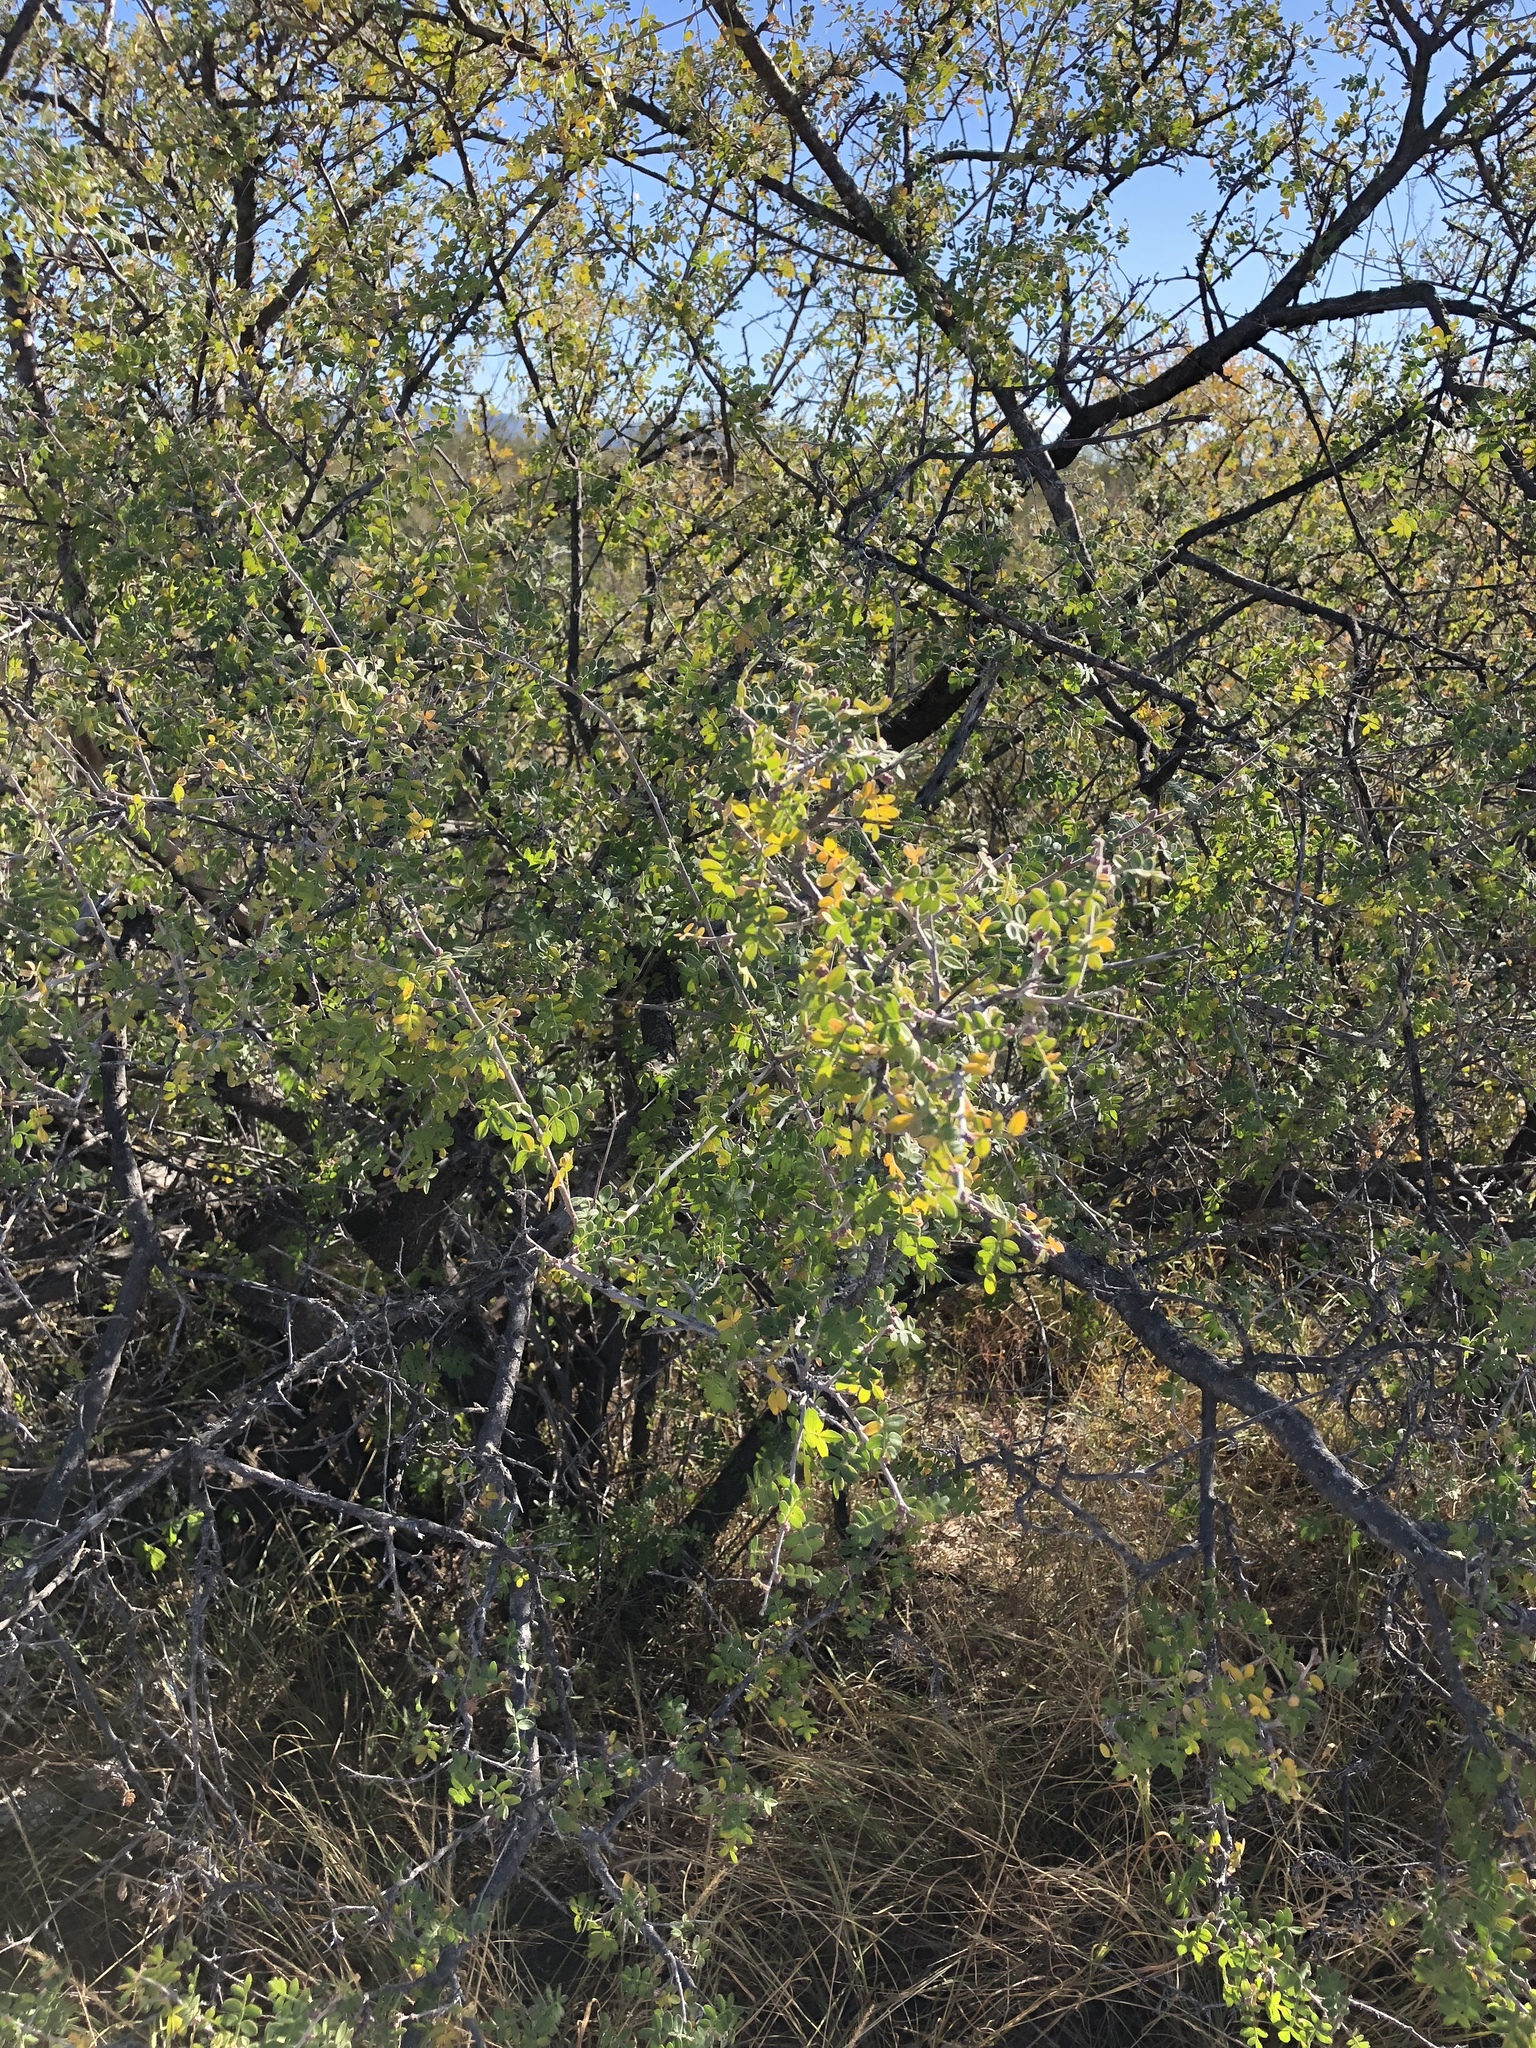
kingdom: Plantae
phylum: Tracheophyta
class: Magnoliopsida
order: Sapindales
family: Anacardiaceae
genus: Rhus
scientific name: Rhus microphylla
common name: Desert sumac
